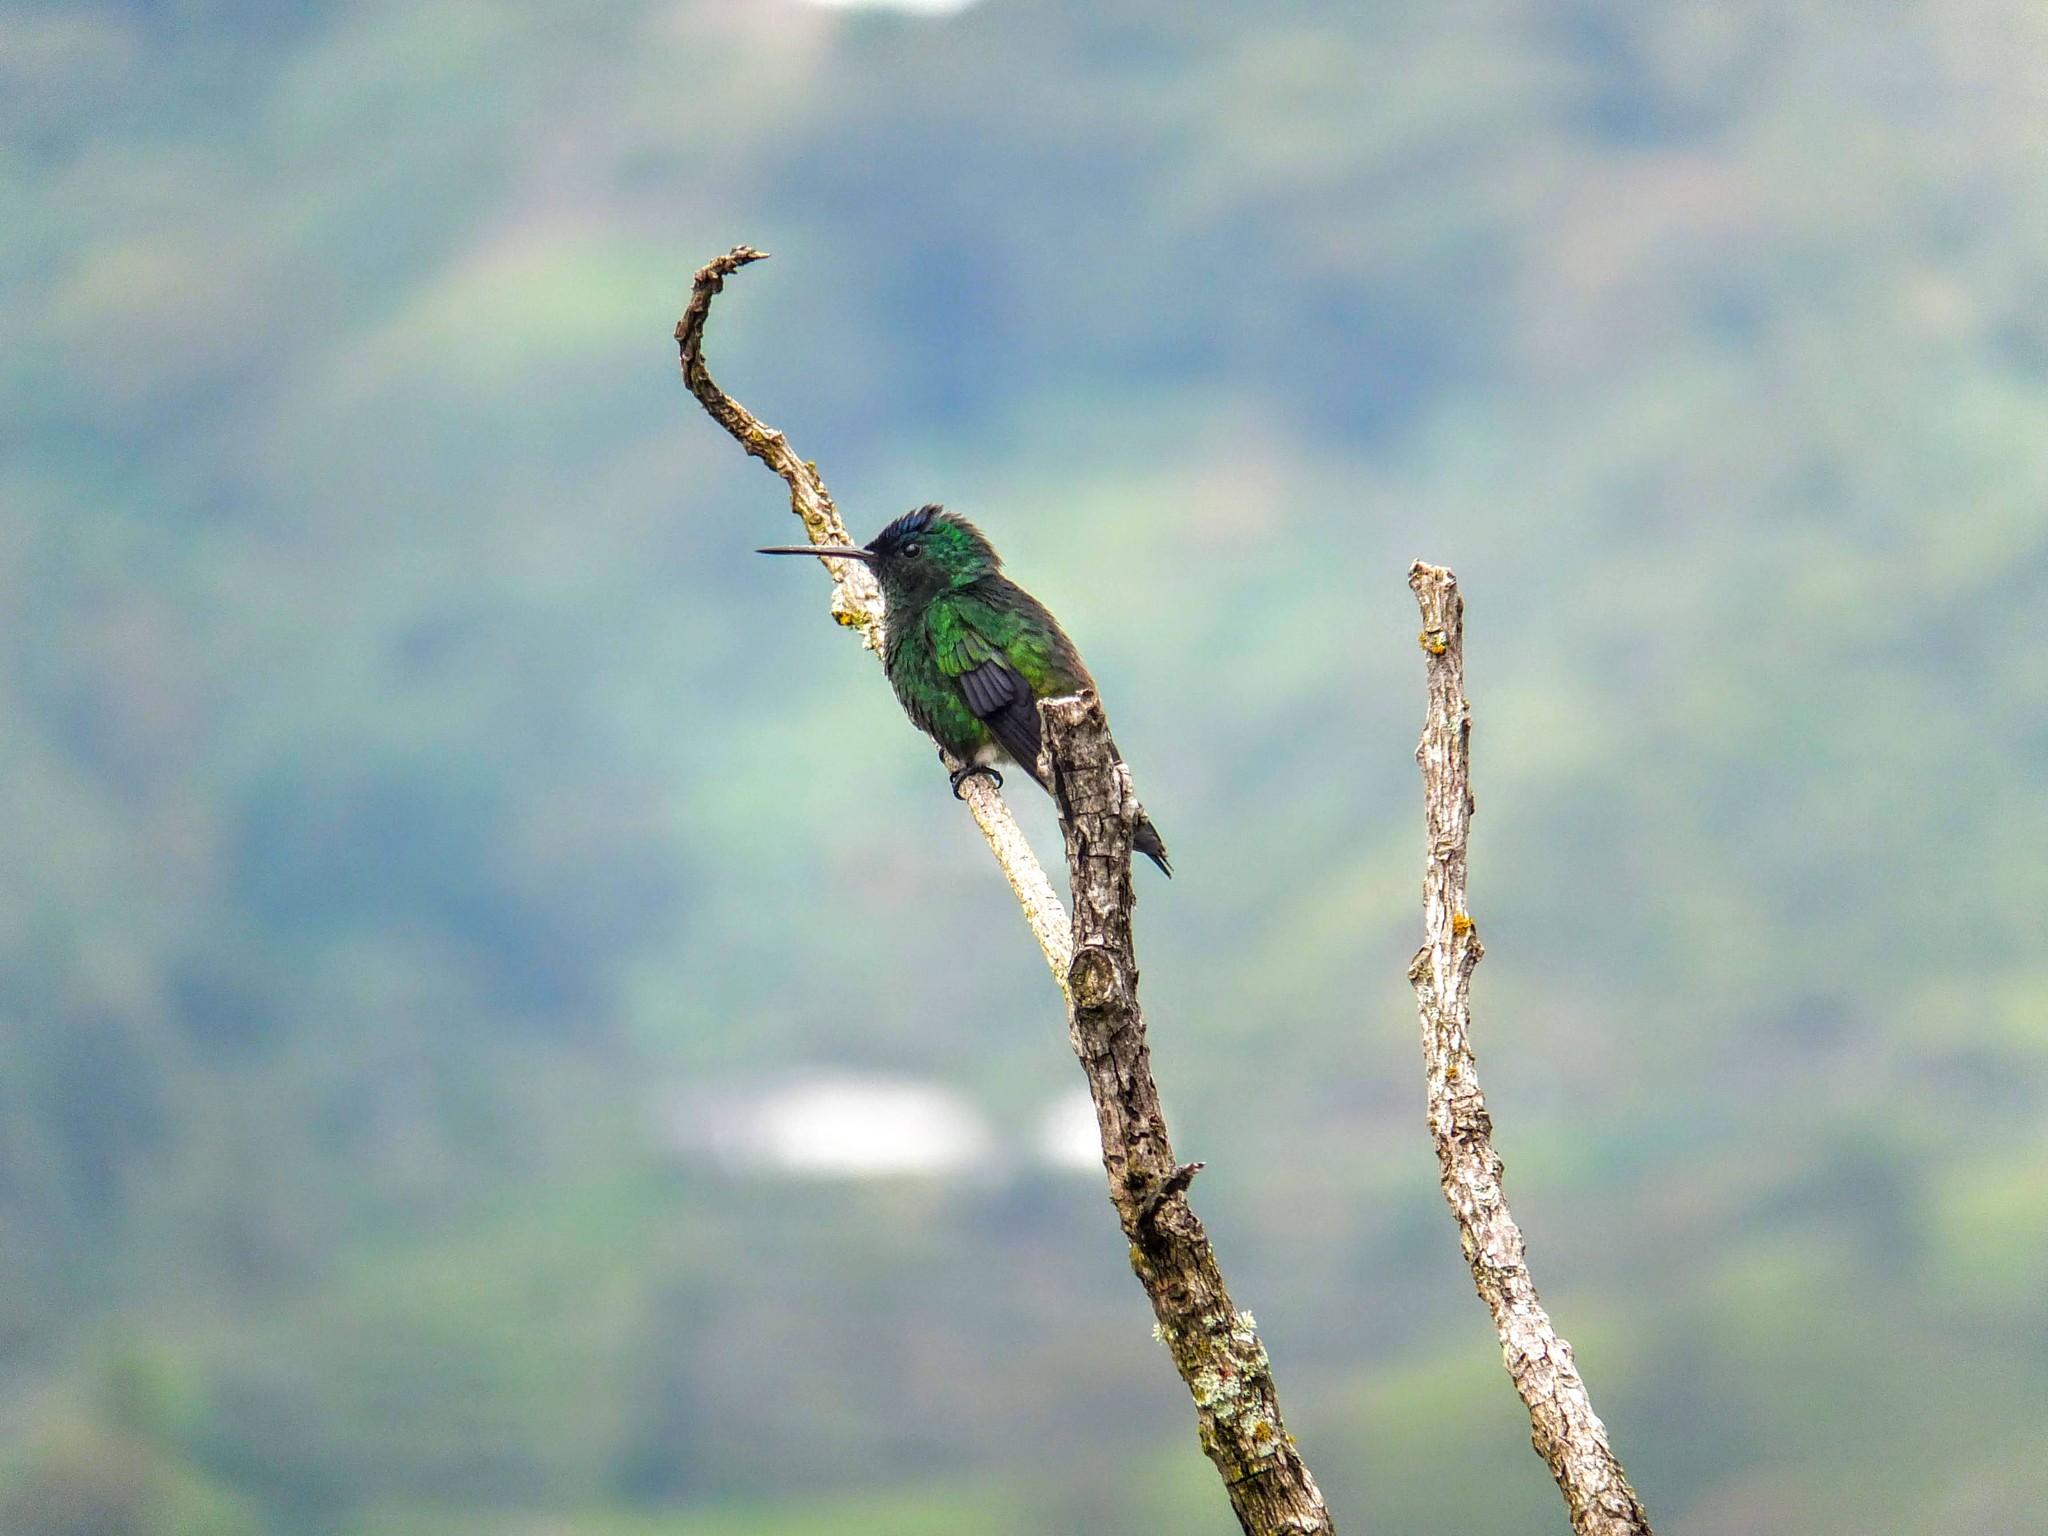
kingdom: Animalia
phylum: Chordata
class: Aves
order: Apodiformes
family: Trochilidae
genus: Saucerottia
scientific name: Saucerottia cyanifrons
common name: Indigo-capped hummingbird
